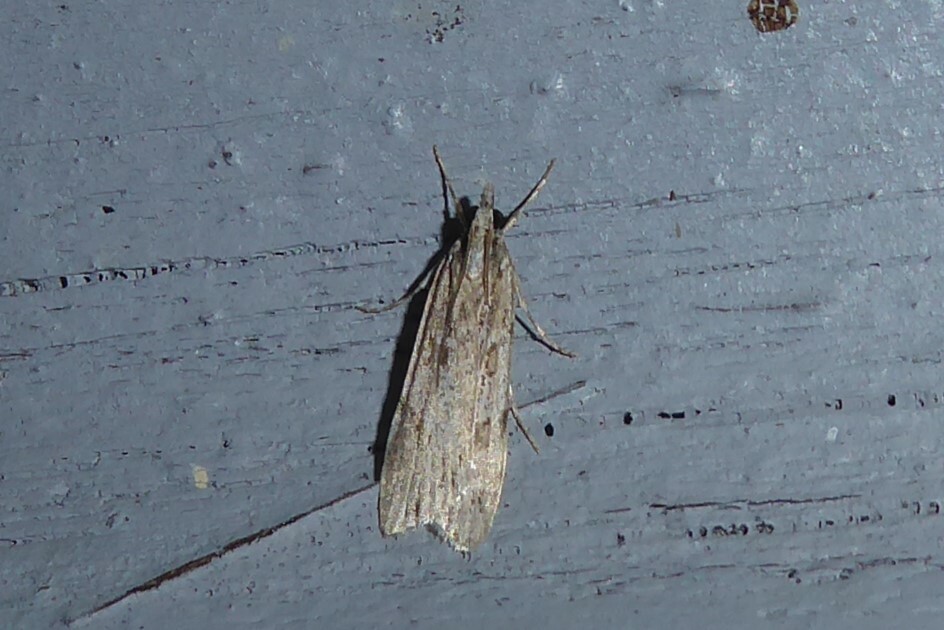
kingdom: Animalia
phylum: Arthropoda
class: Insecta
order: Lepidoptera
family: Crambidae
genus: Scoparia
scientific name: Scoparia chalicodes
